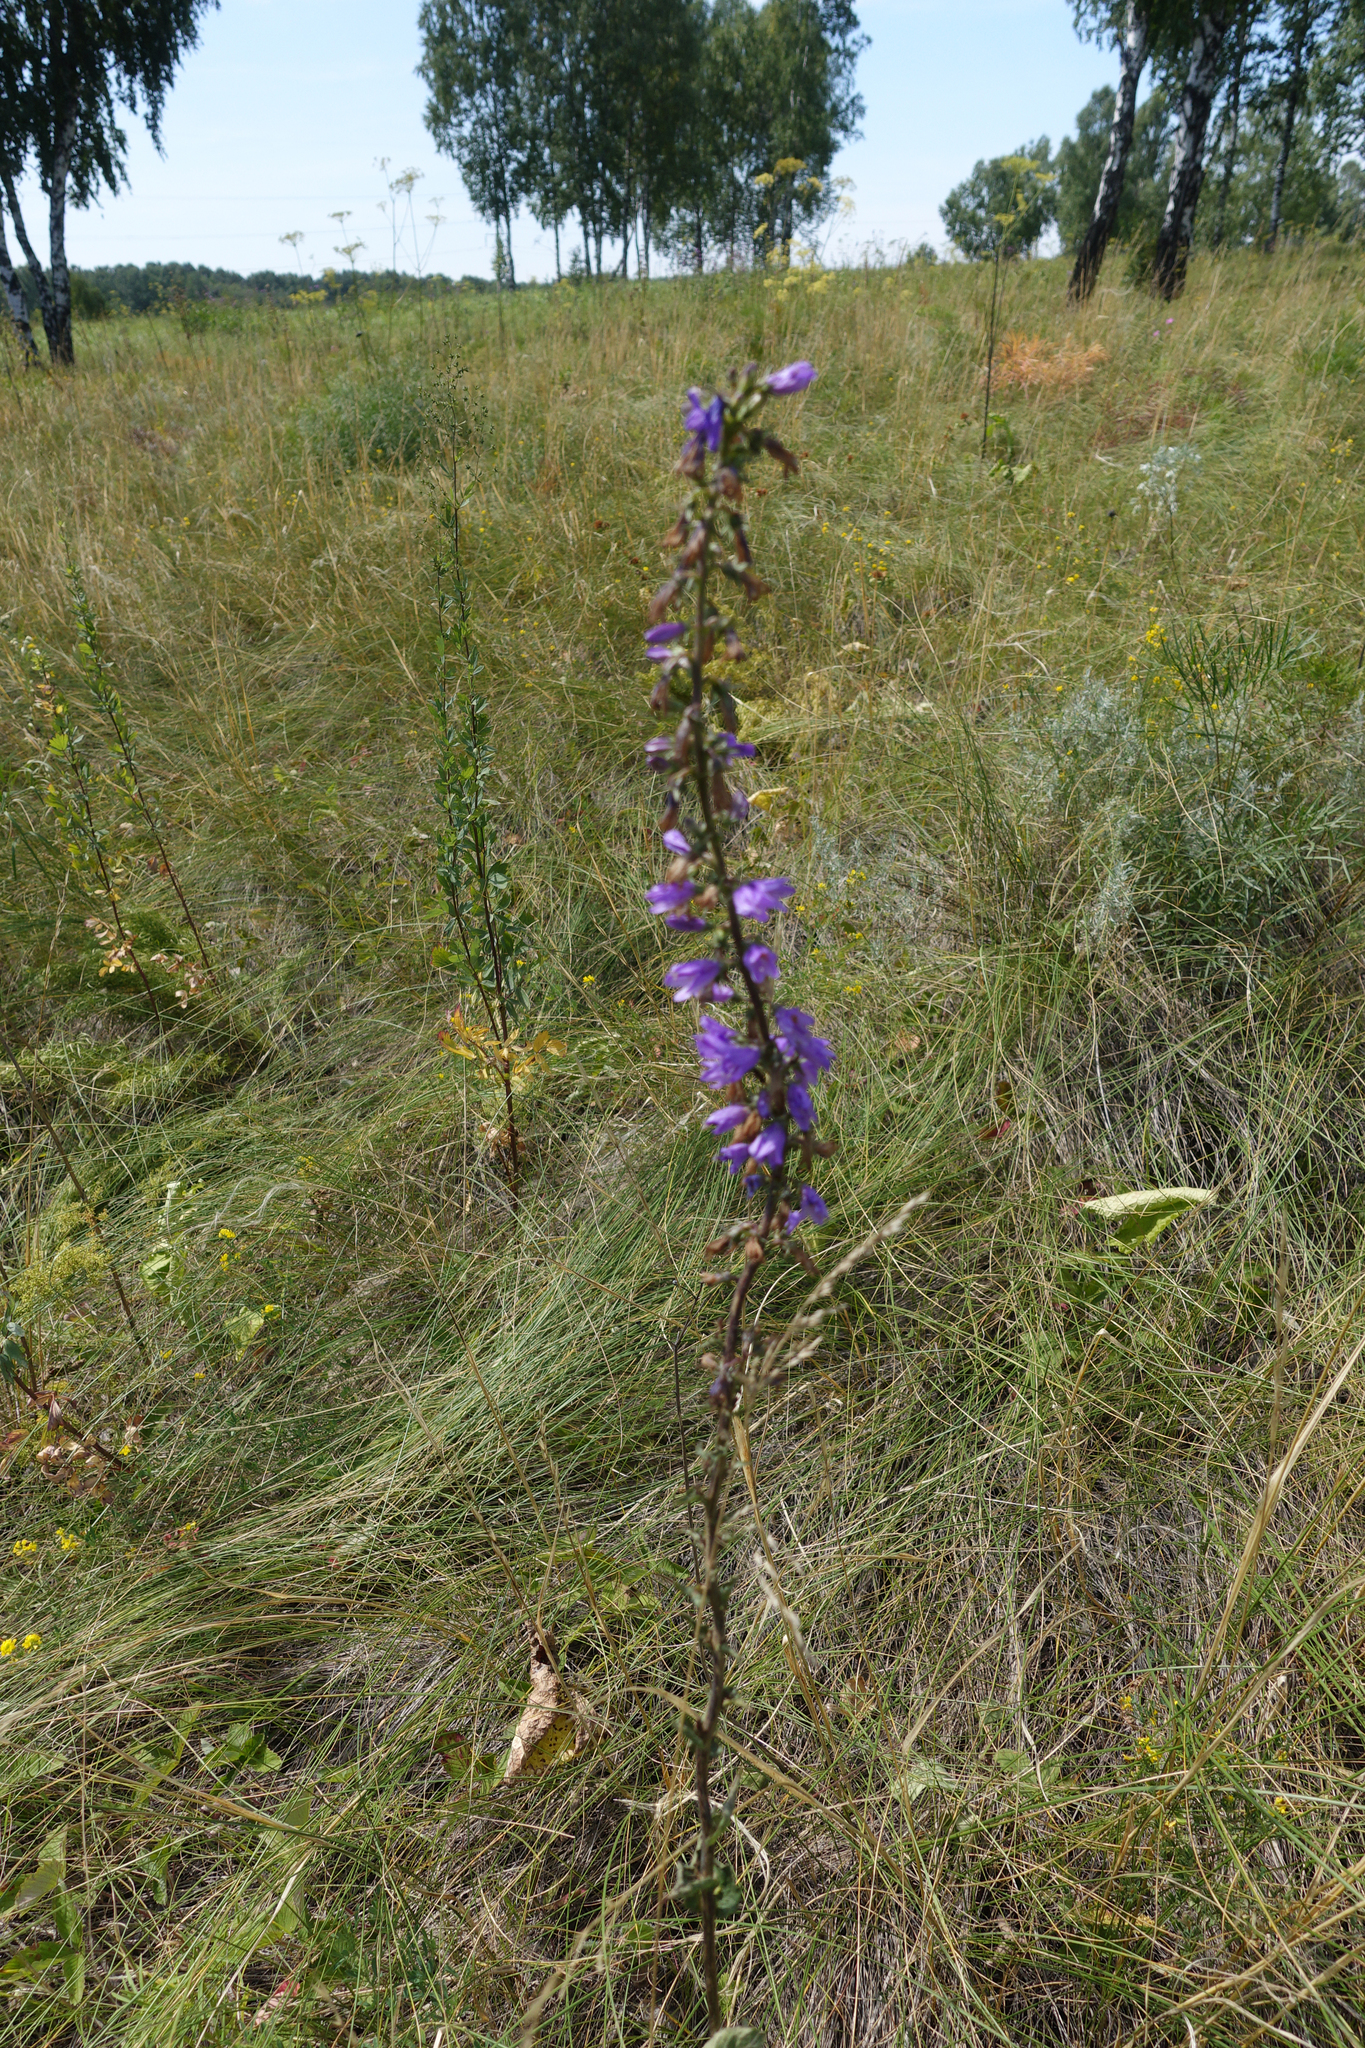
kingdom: Plantae
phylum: Tracheophyta
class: Magnoliopsida
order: Asterales
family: Campanulaceae
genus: Campanula
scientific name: Campanula bononiensis
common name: Pale bellflower
